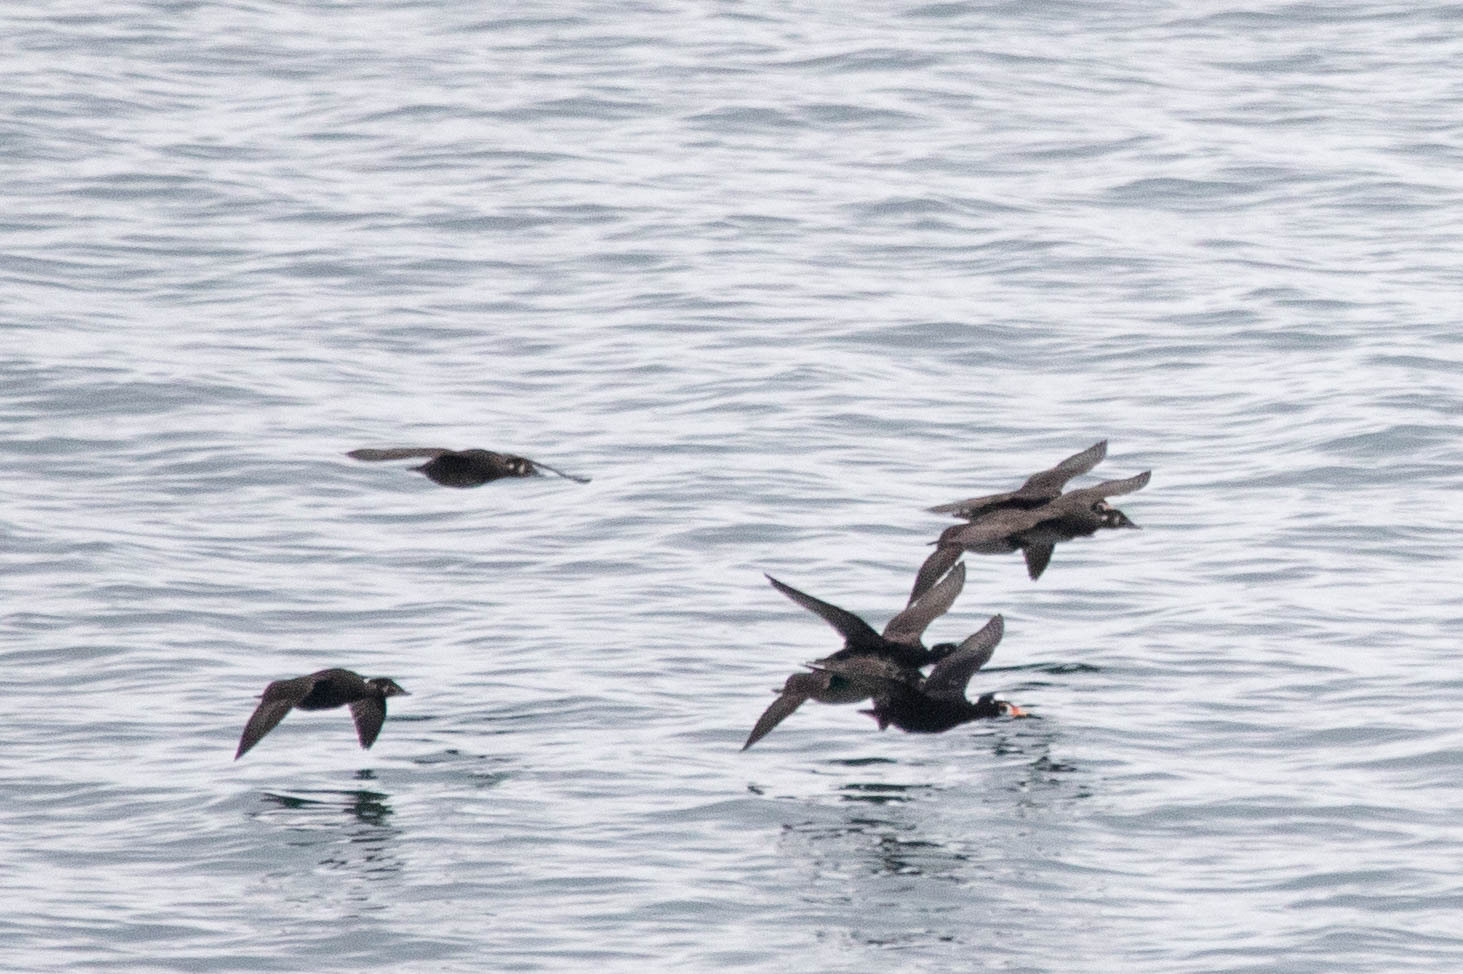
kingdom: Animalia
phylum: Chordata
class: Aves
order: Anseriformes
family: Anatidae
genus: Melanitta
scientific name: Melanitta perspicillata
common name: Surf scoter
